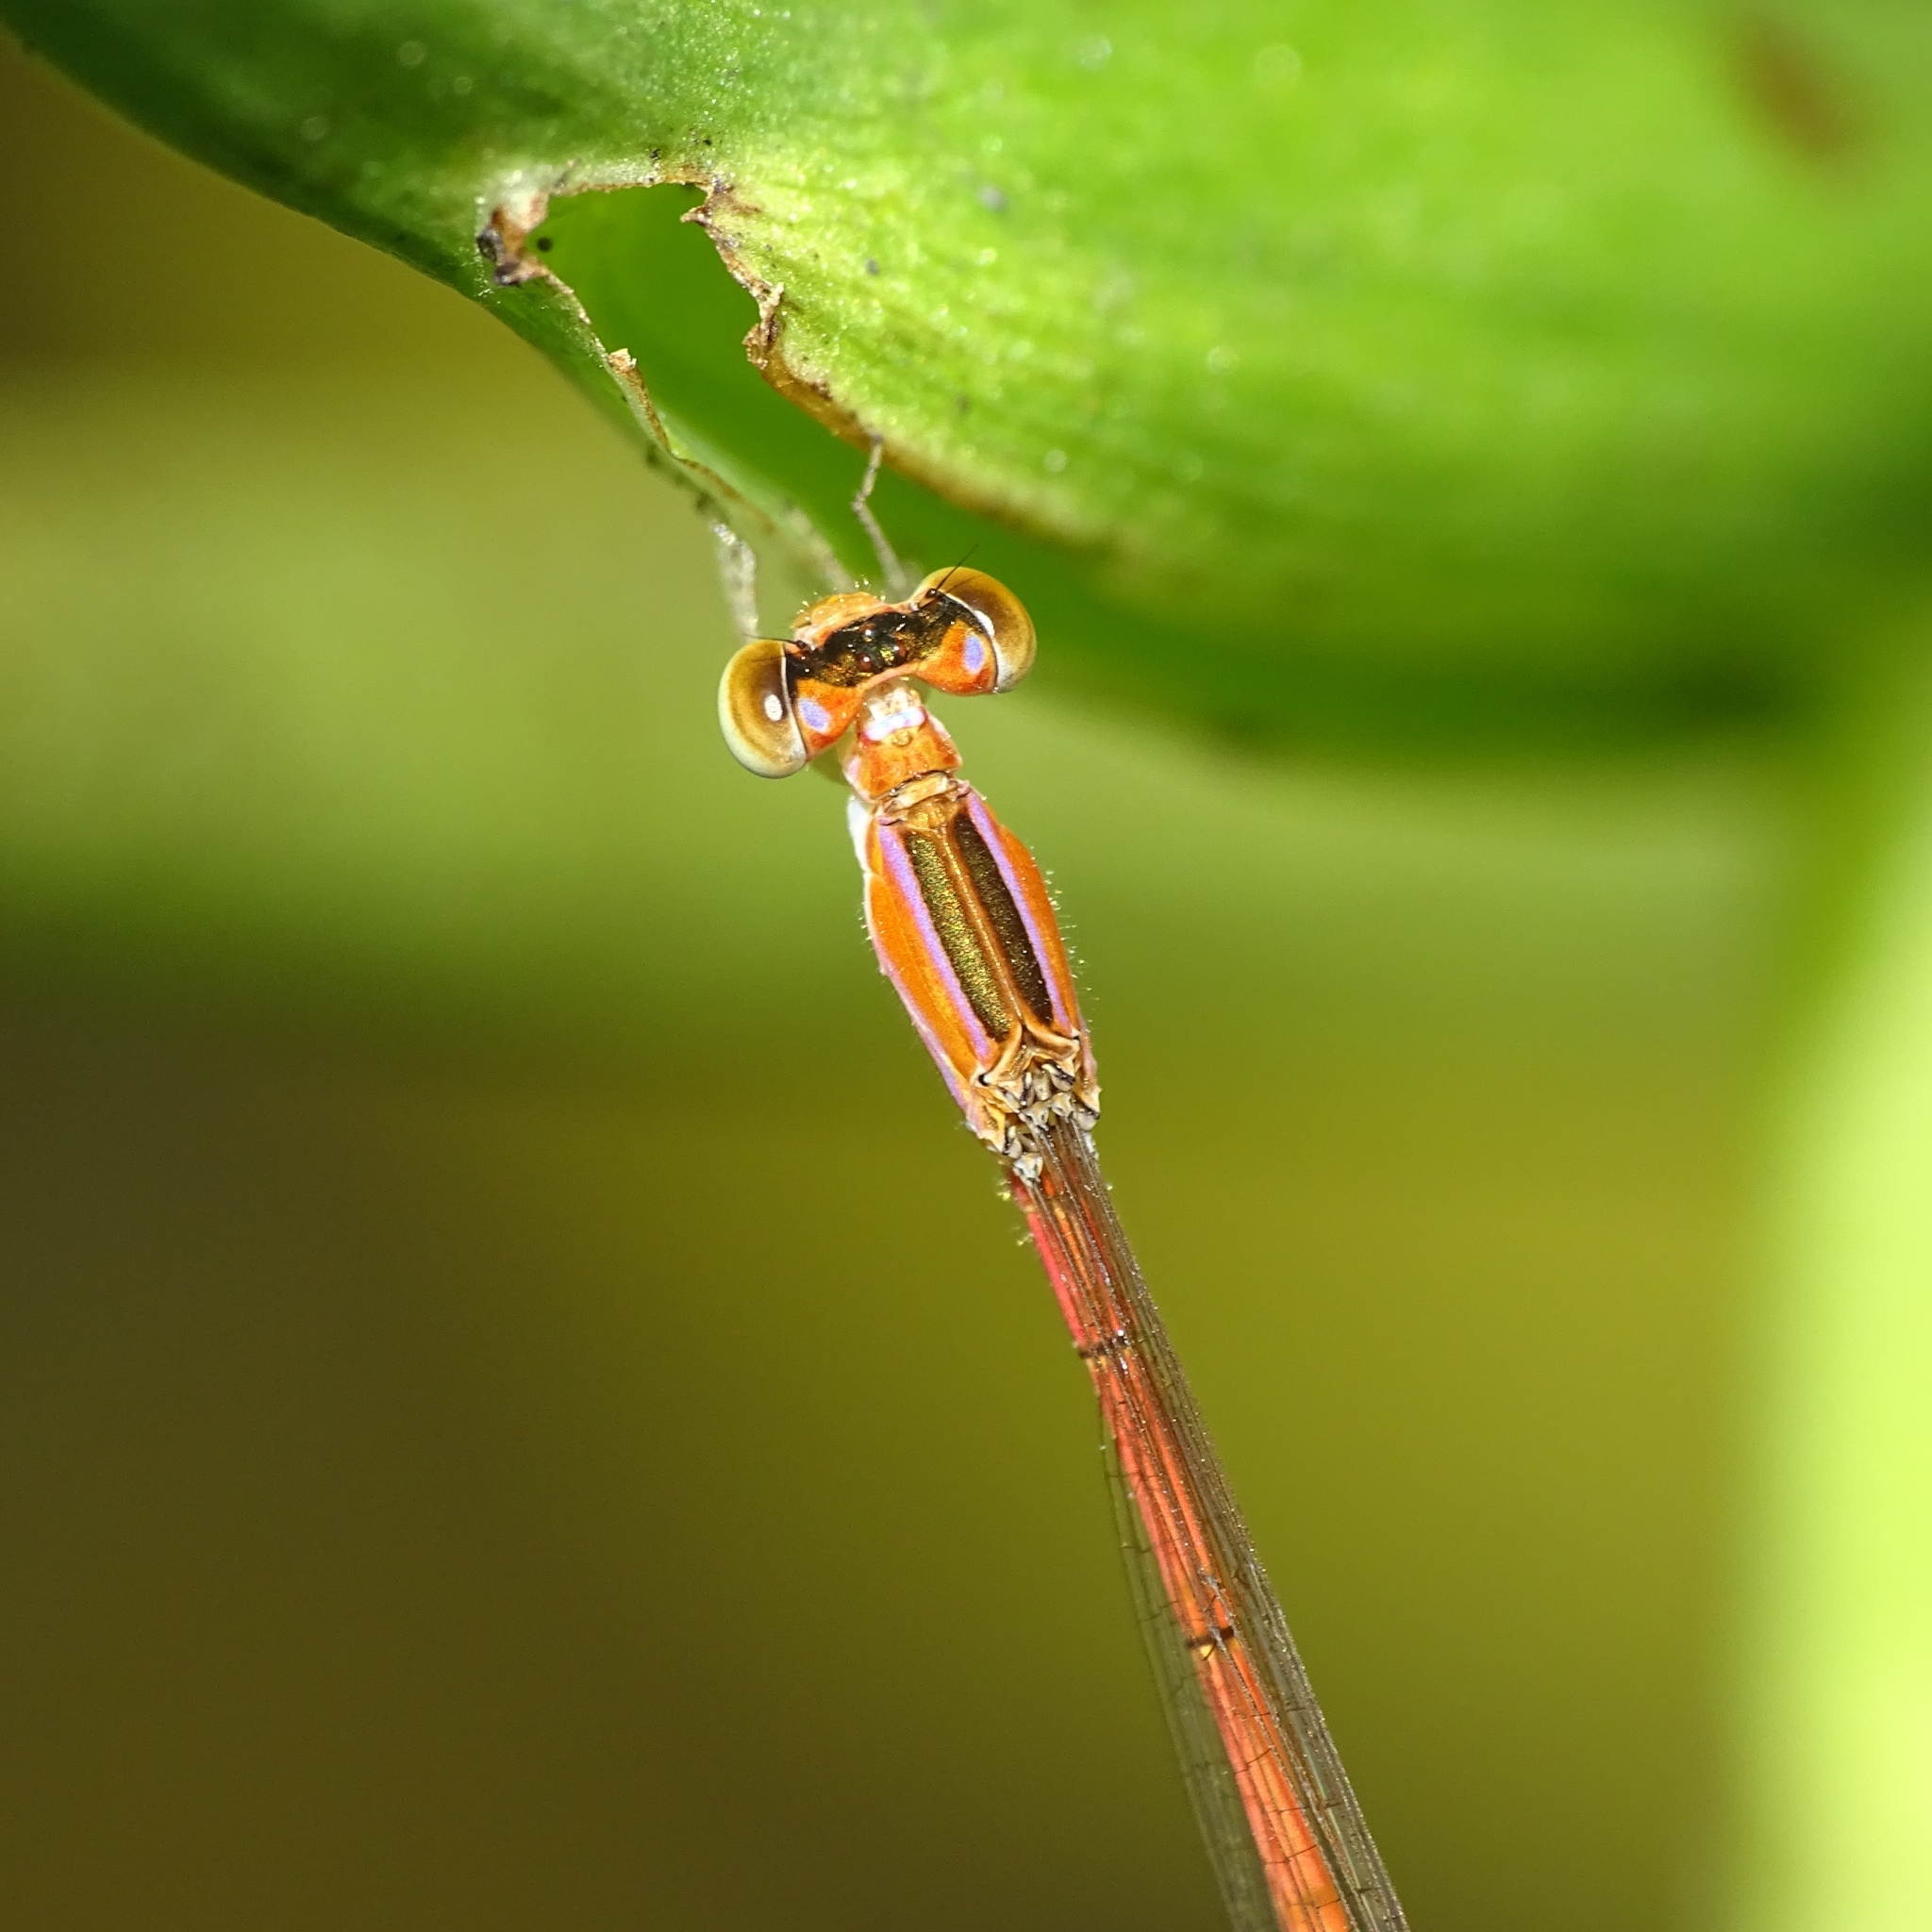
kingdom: Animalia
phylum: Arthropoda
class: Insecta
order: Odonata
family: Coenagrionidae
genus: Agriocnemis
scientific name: Agriocnemis pygmaea
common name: Pygmy wisp
